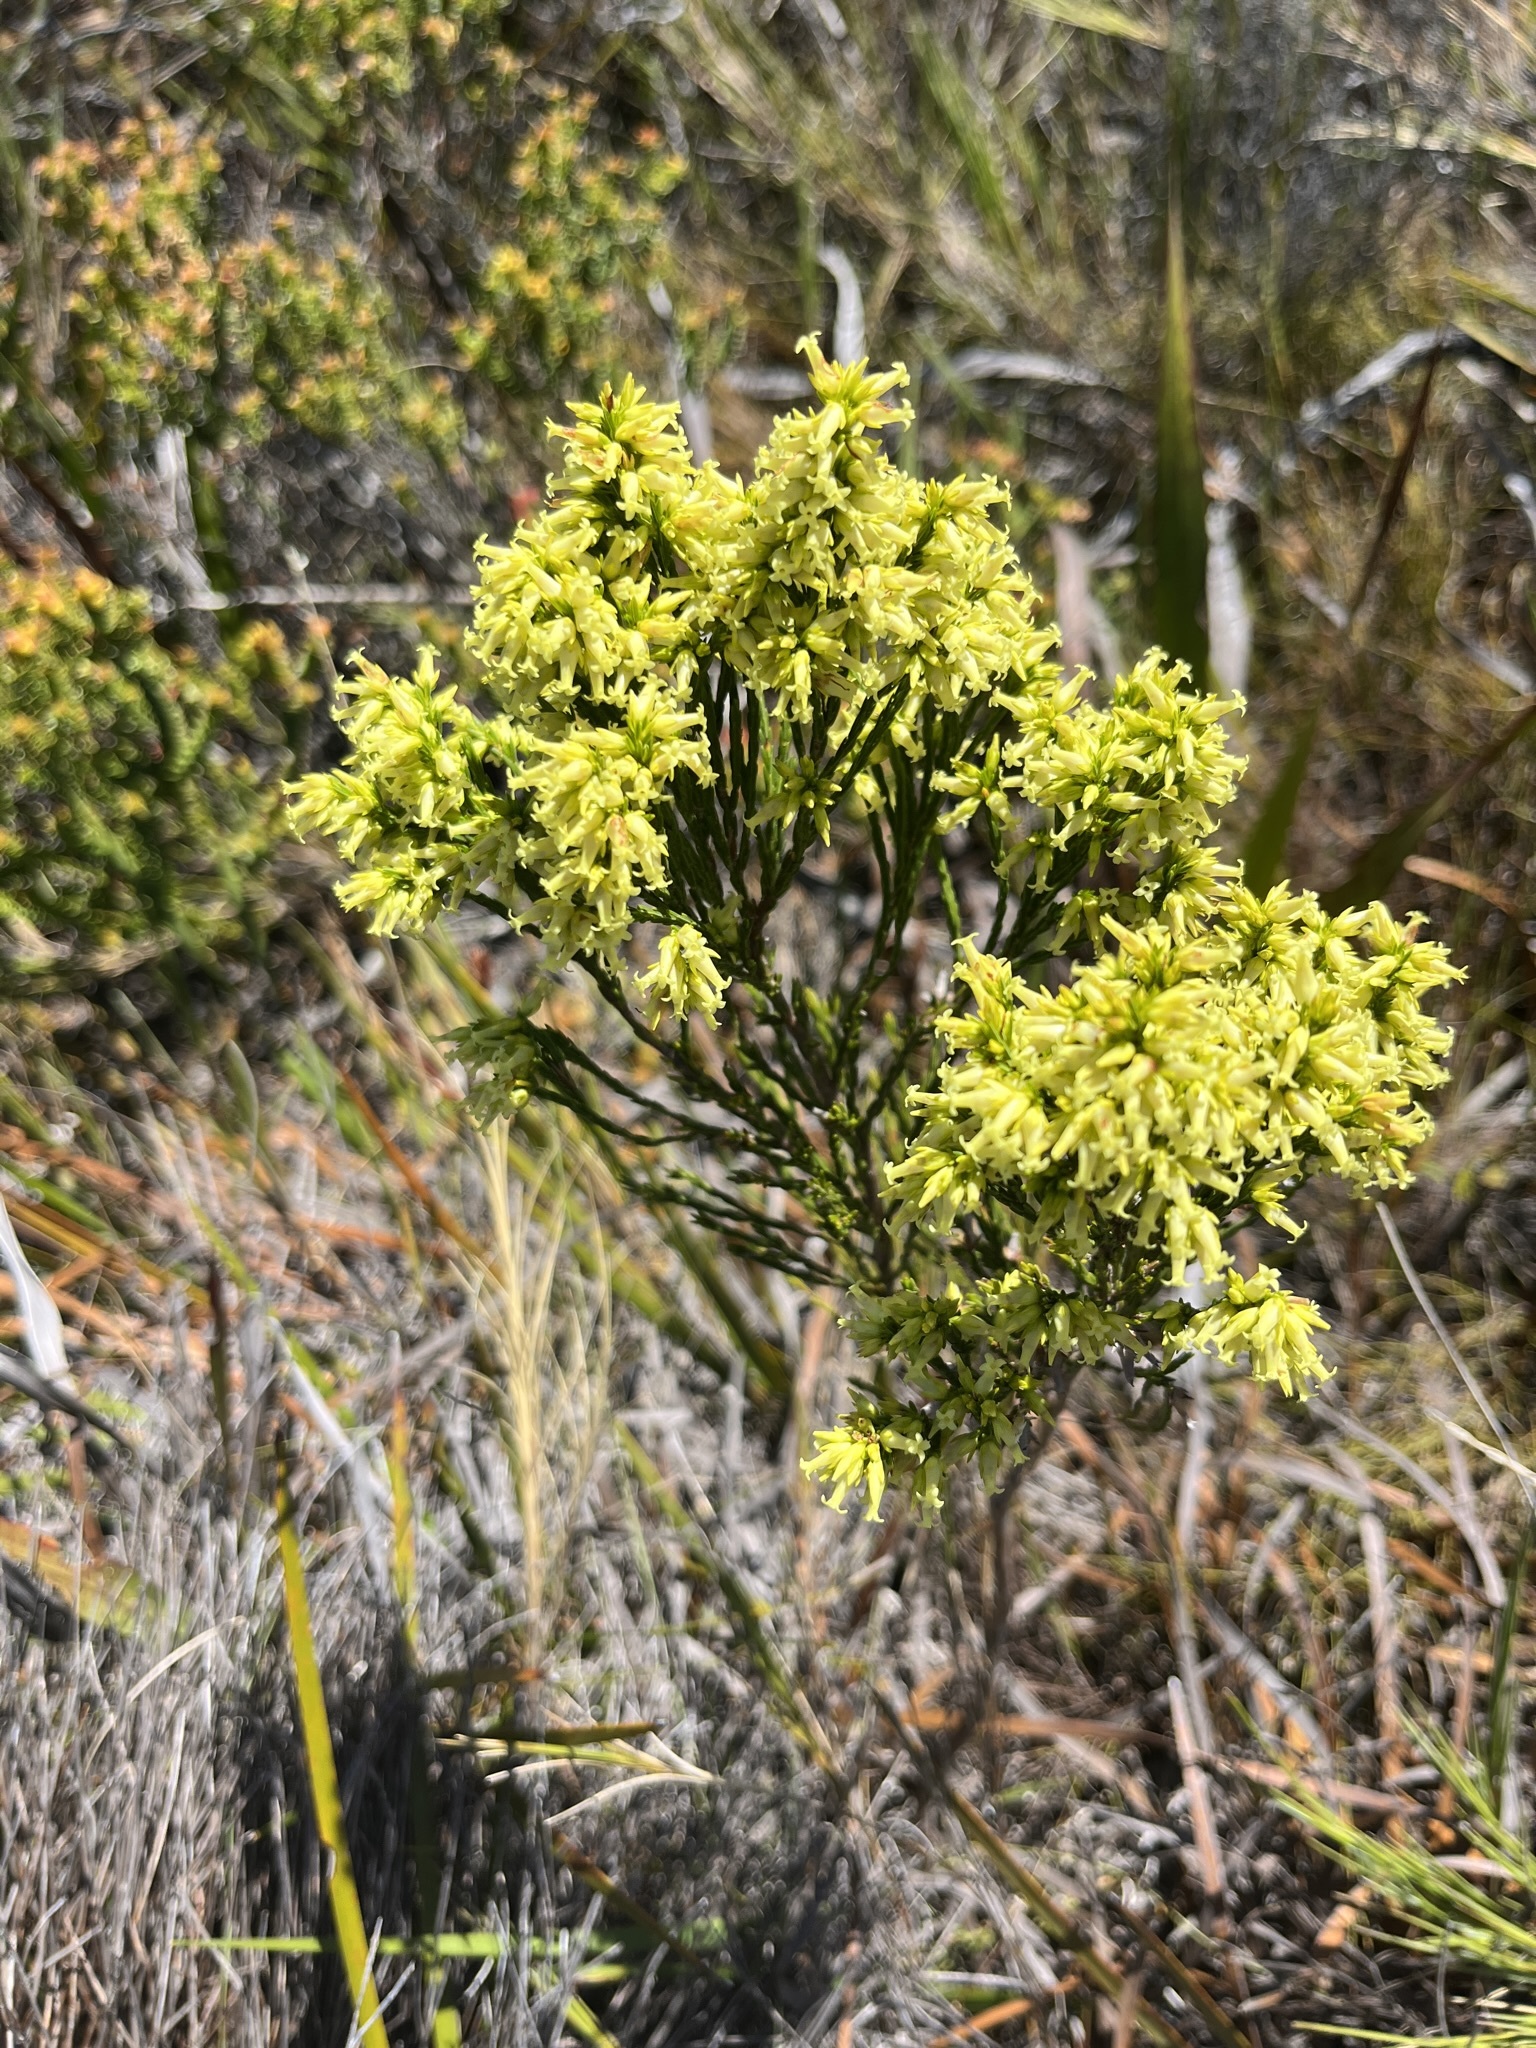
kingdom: Plantae
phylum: Tracheophyta
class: Magnoliopsida
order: Ericales
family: Ericaceae
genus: Erica
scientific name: Erica lutea
